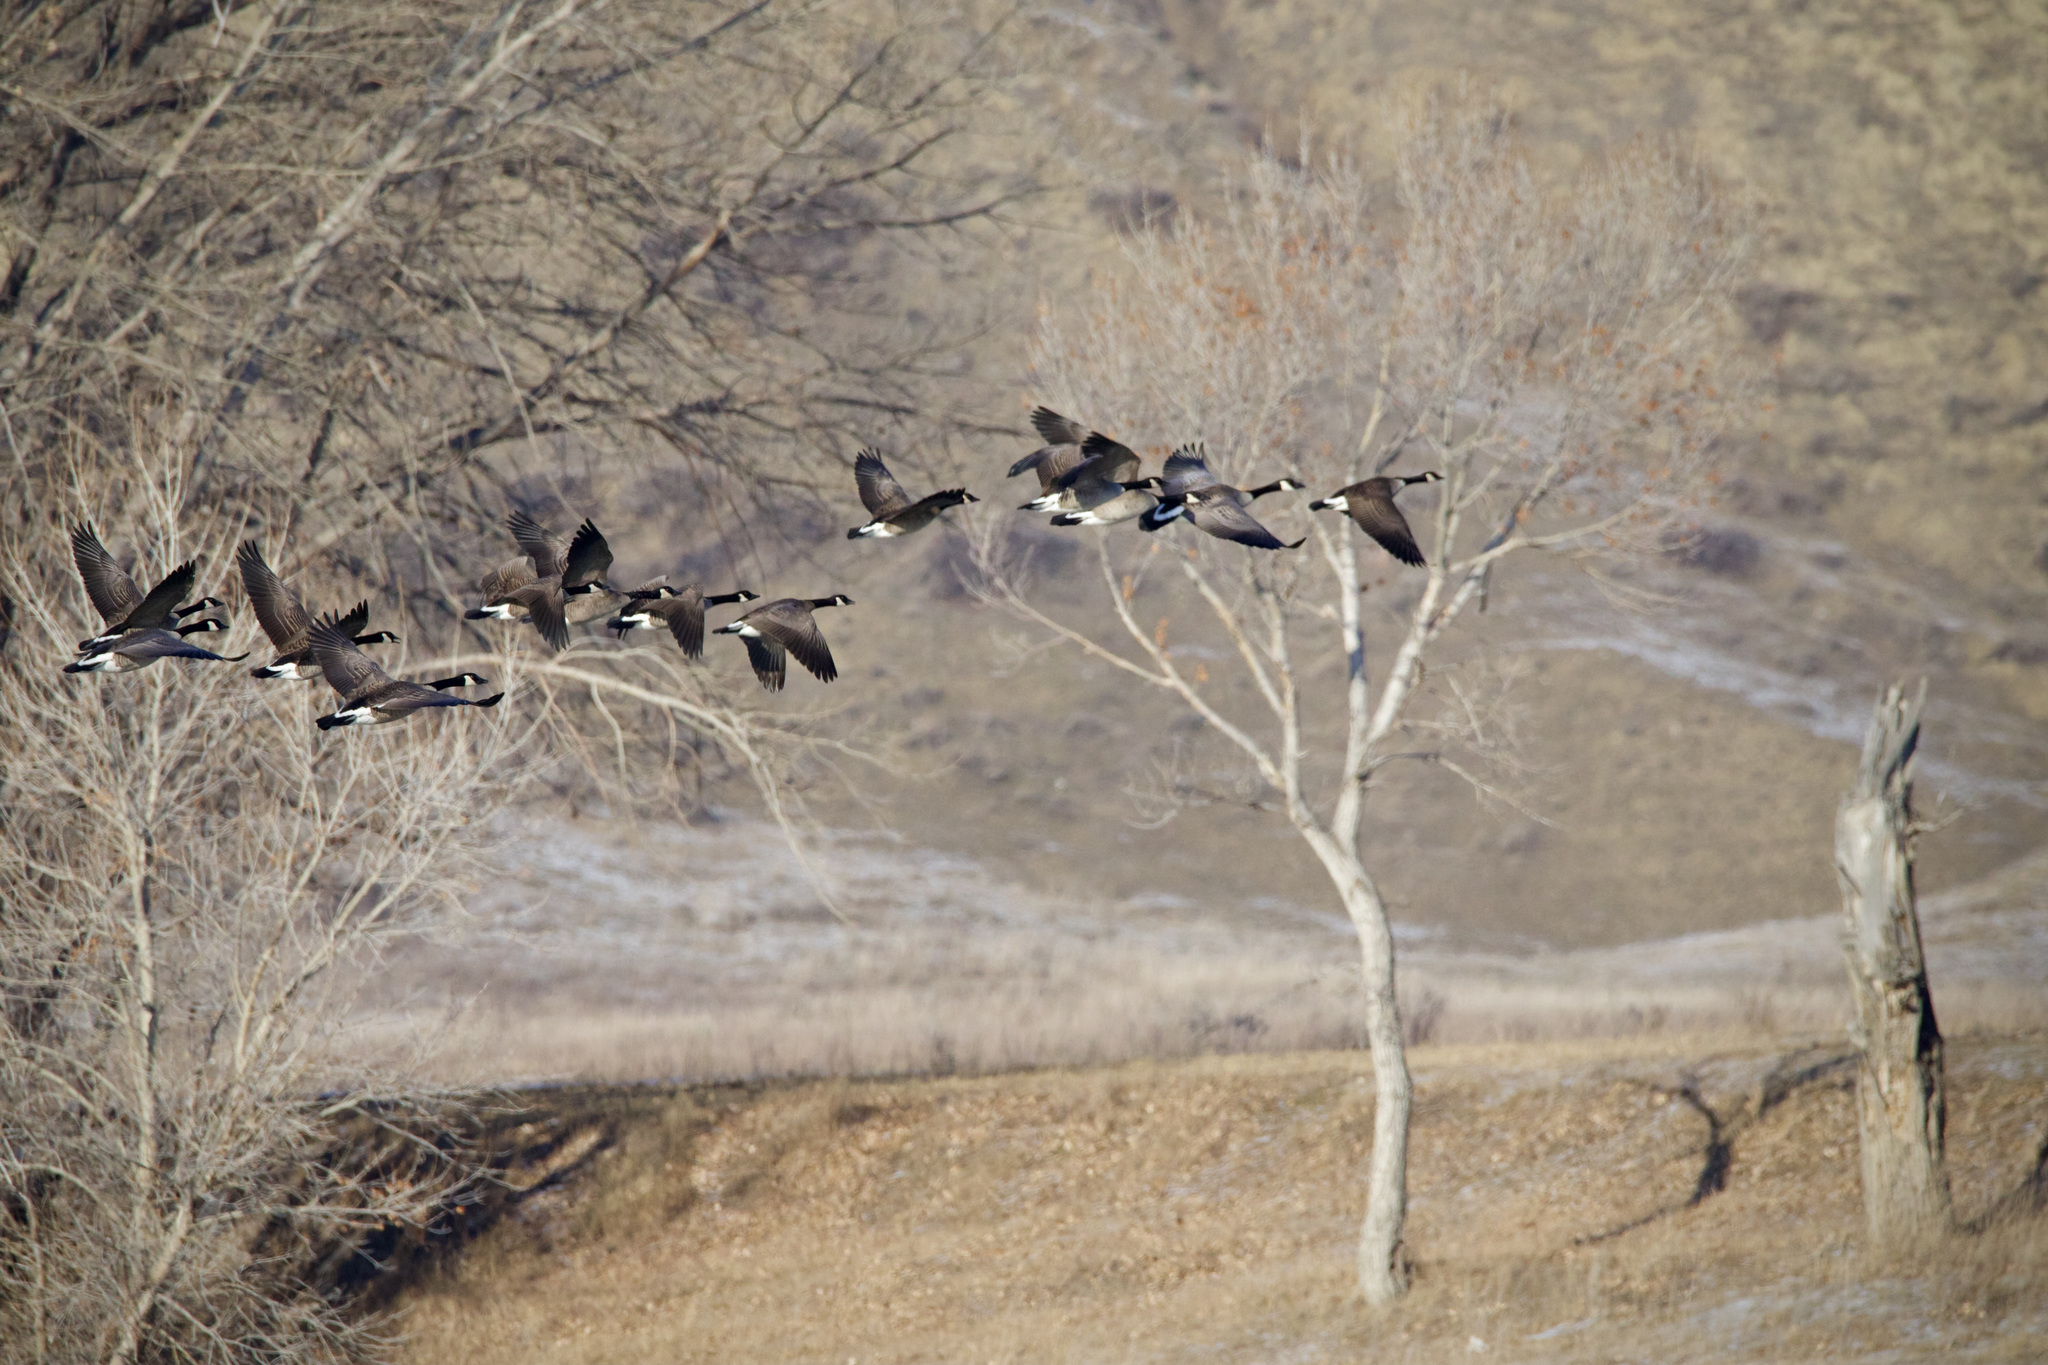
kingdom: Animalia
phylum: Chordata
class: Aves
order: Anseriformes
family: Anatidae
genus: Branta
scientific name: Branta canadensis
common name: Canada goose
